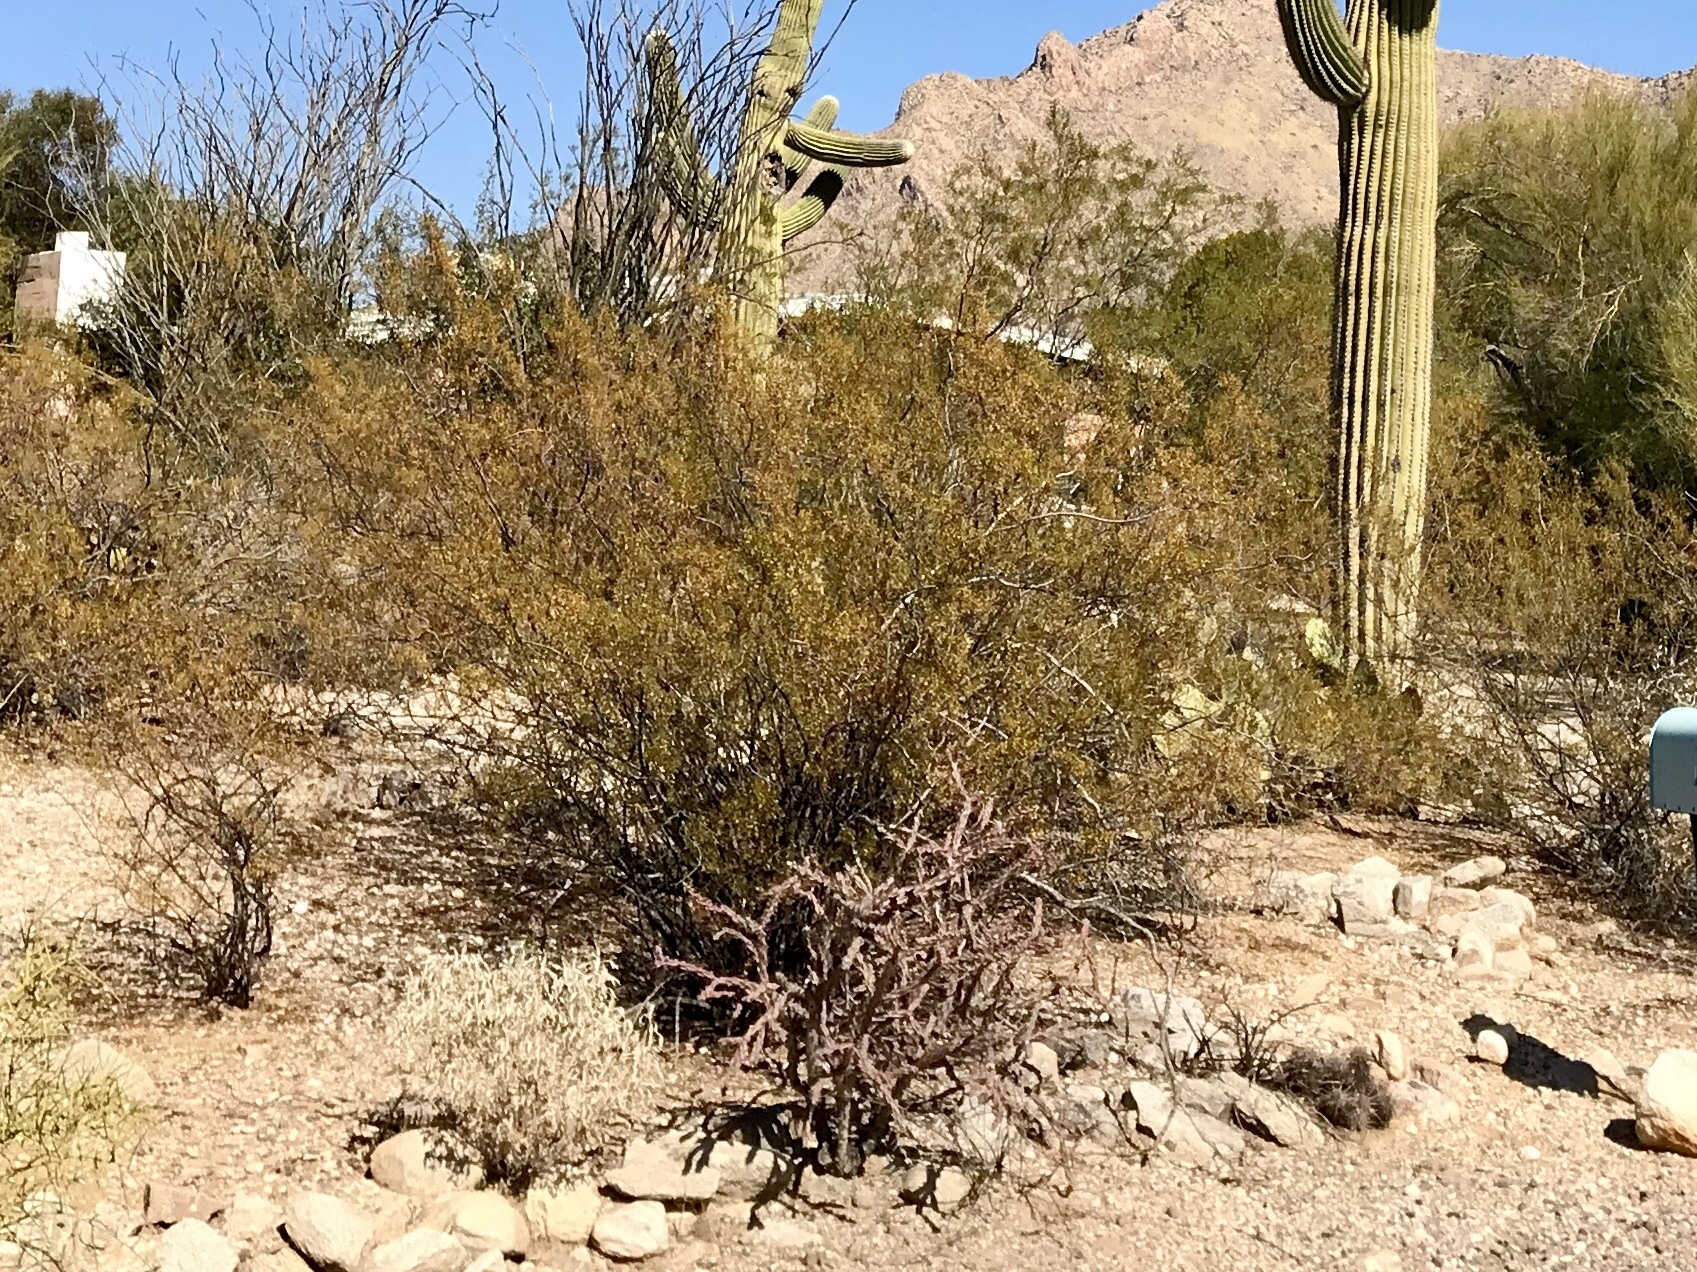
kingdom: Plantae
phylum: Tracheophyta
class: Magnoliopsida
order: Zygophyllales
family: Zygophyllaceae
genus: Larrea
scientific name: Larrea tridentata
